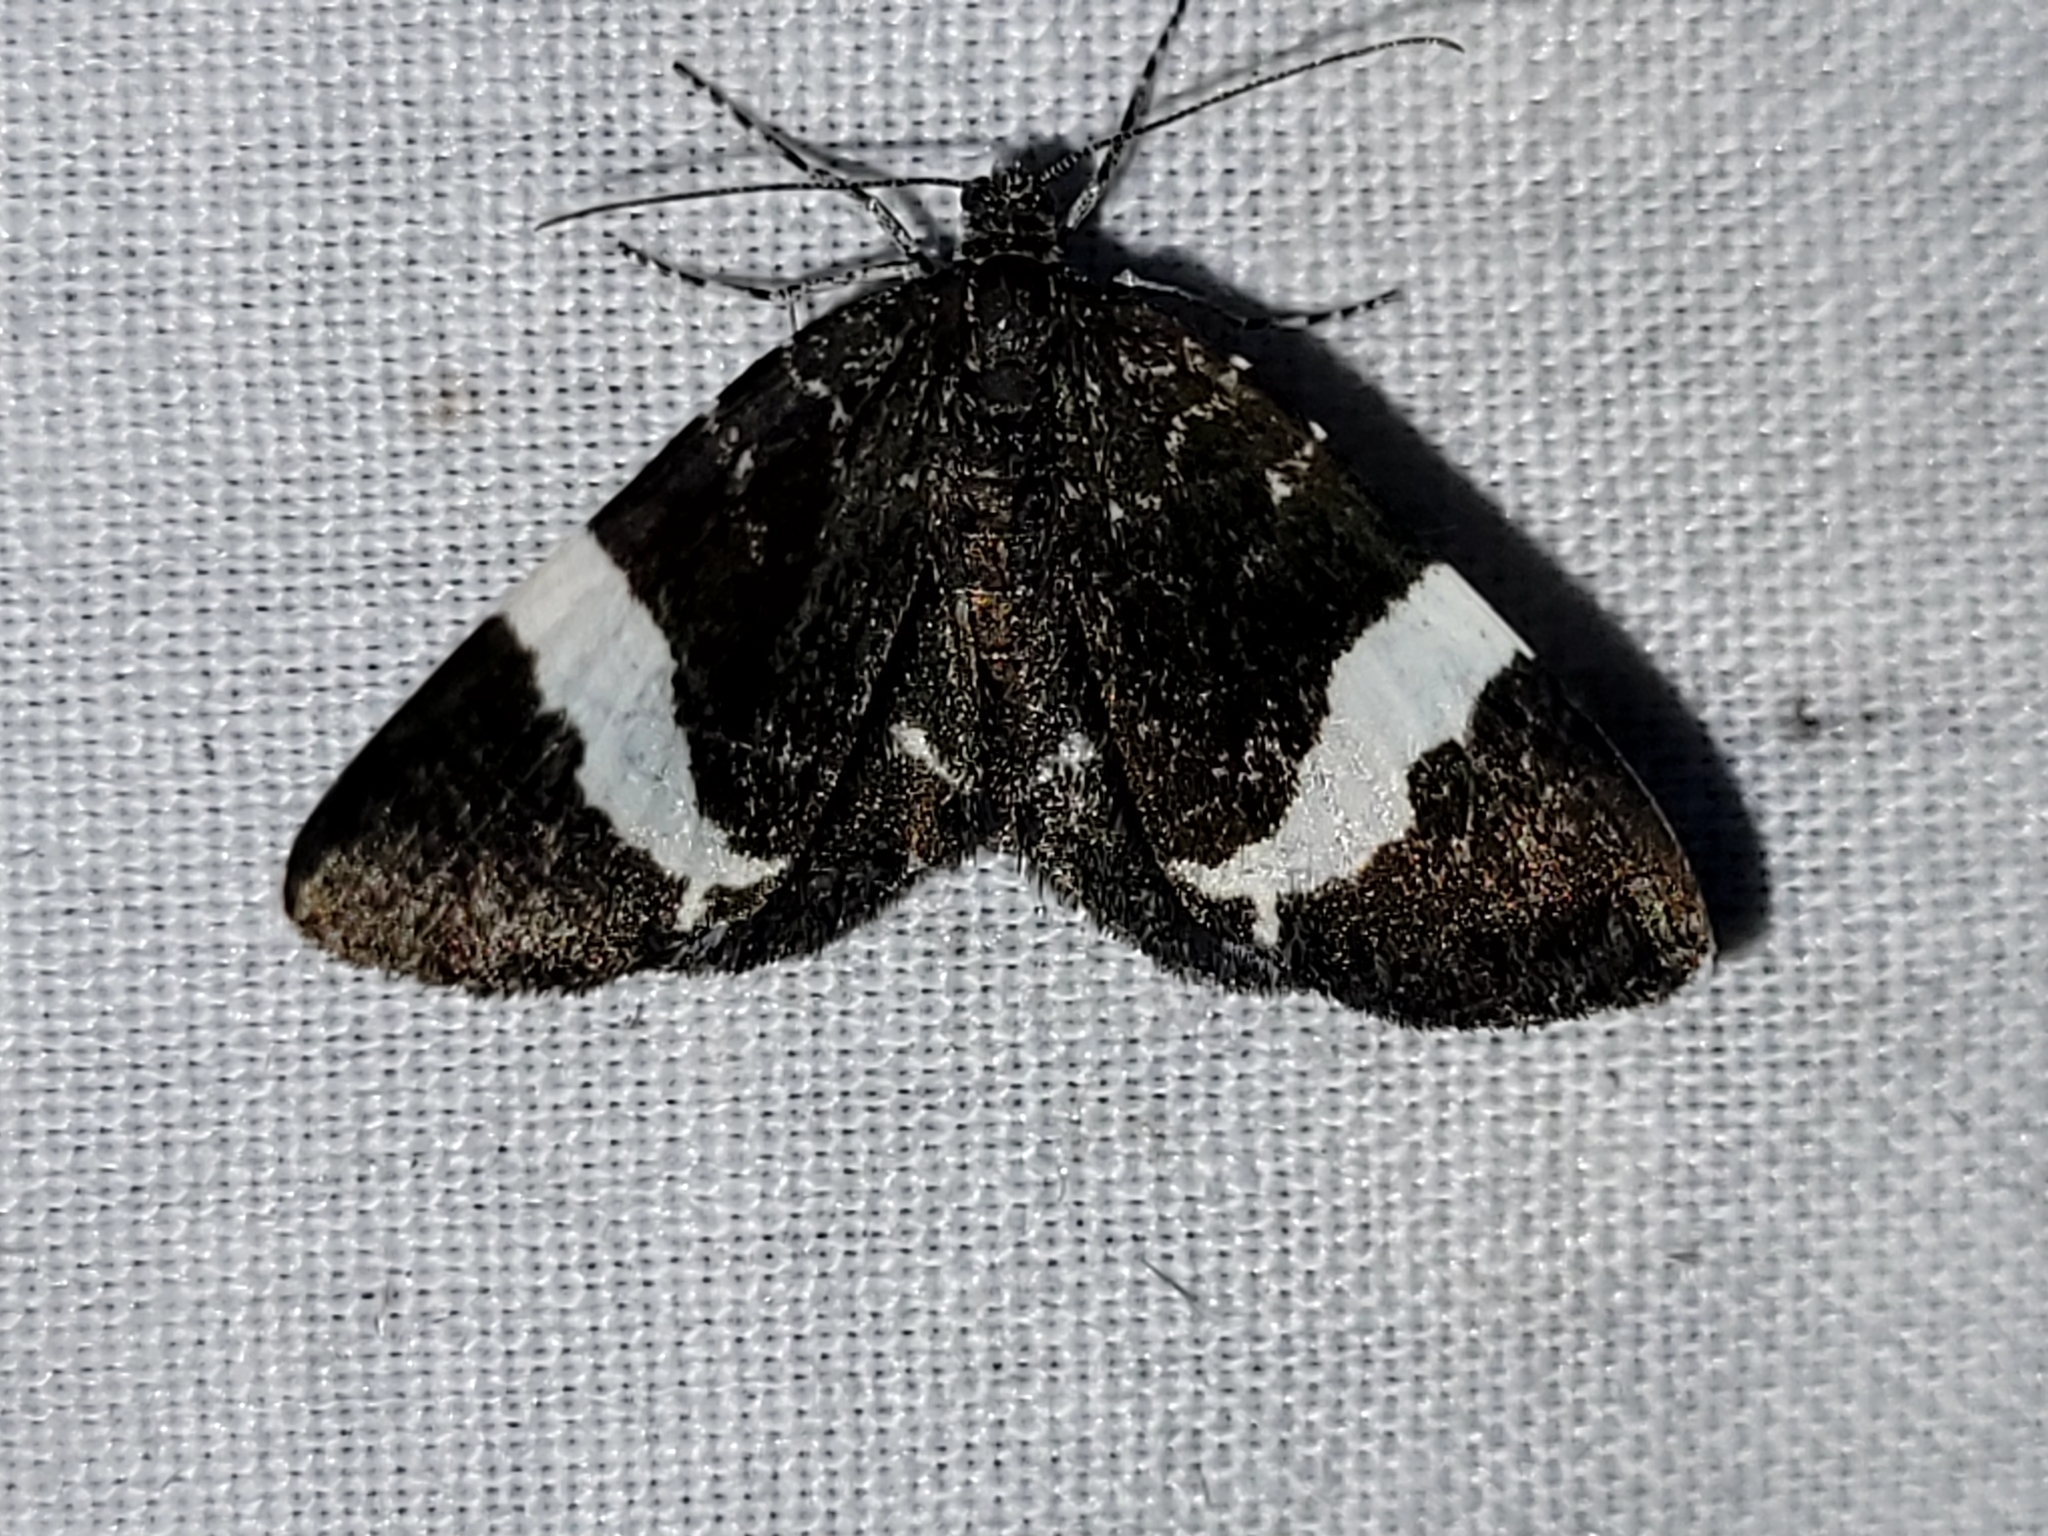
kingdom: Animalia
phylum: Arthropoda
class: Insecta
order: Lepidoptera
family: Geometridae
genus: Trichodezia
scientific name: Trichodezia albovittata
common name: White striped black
